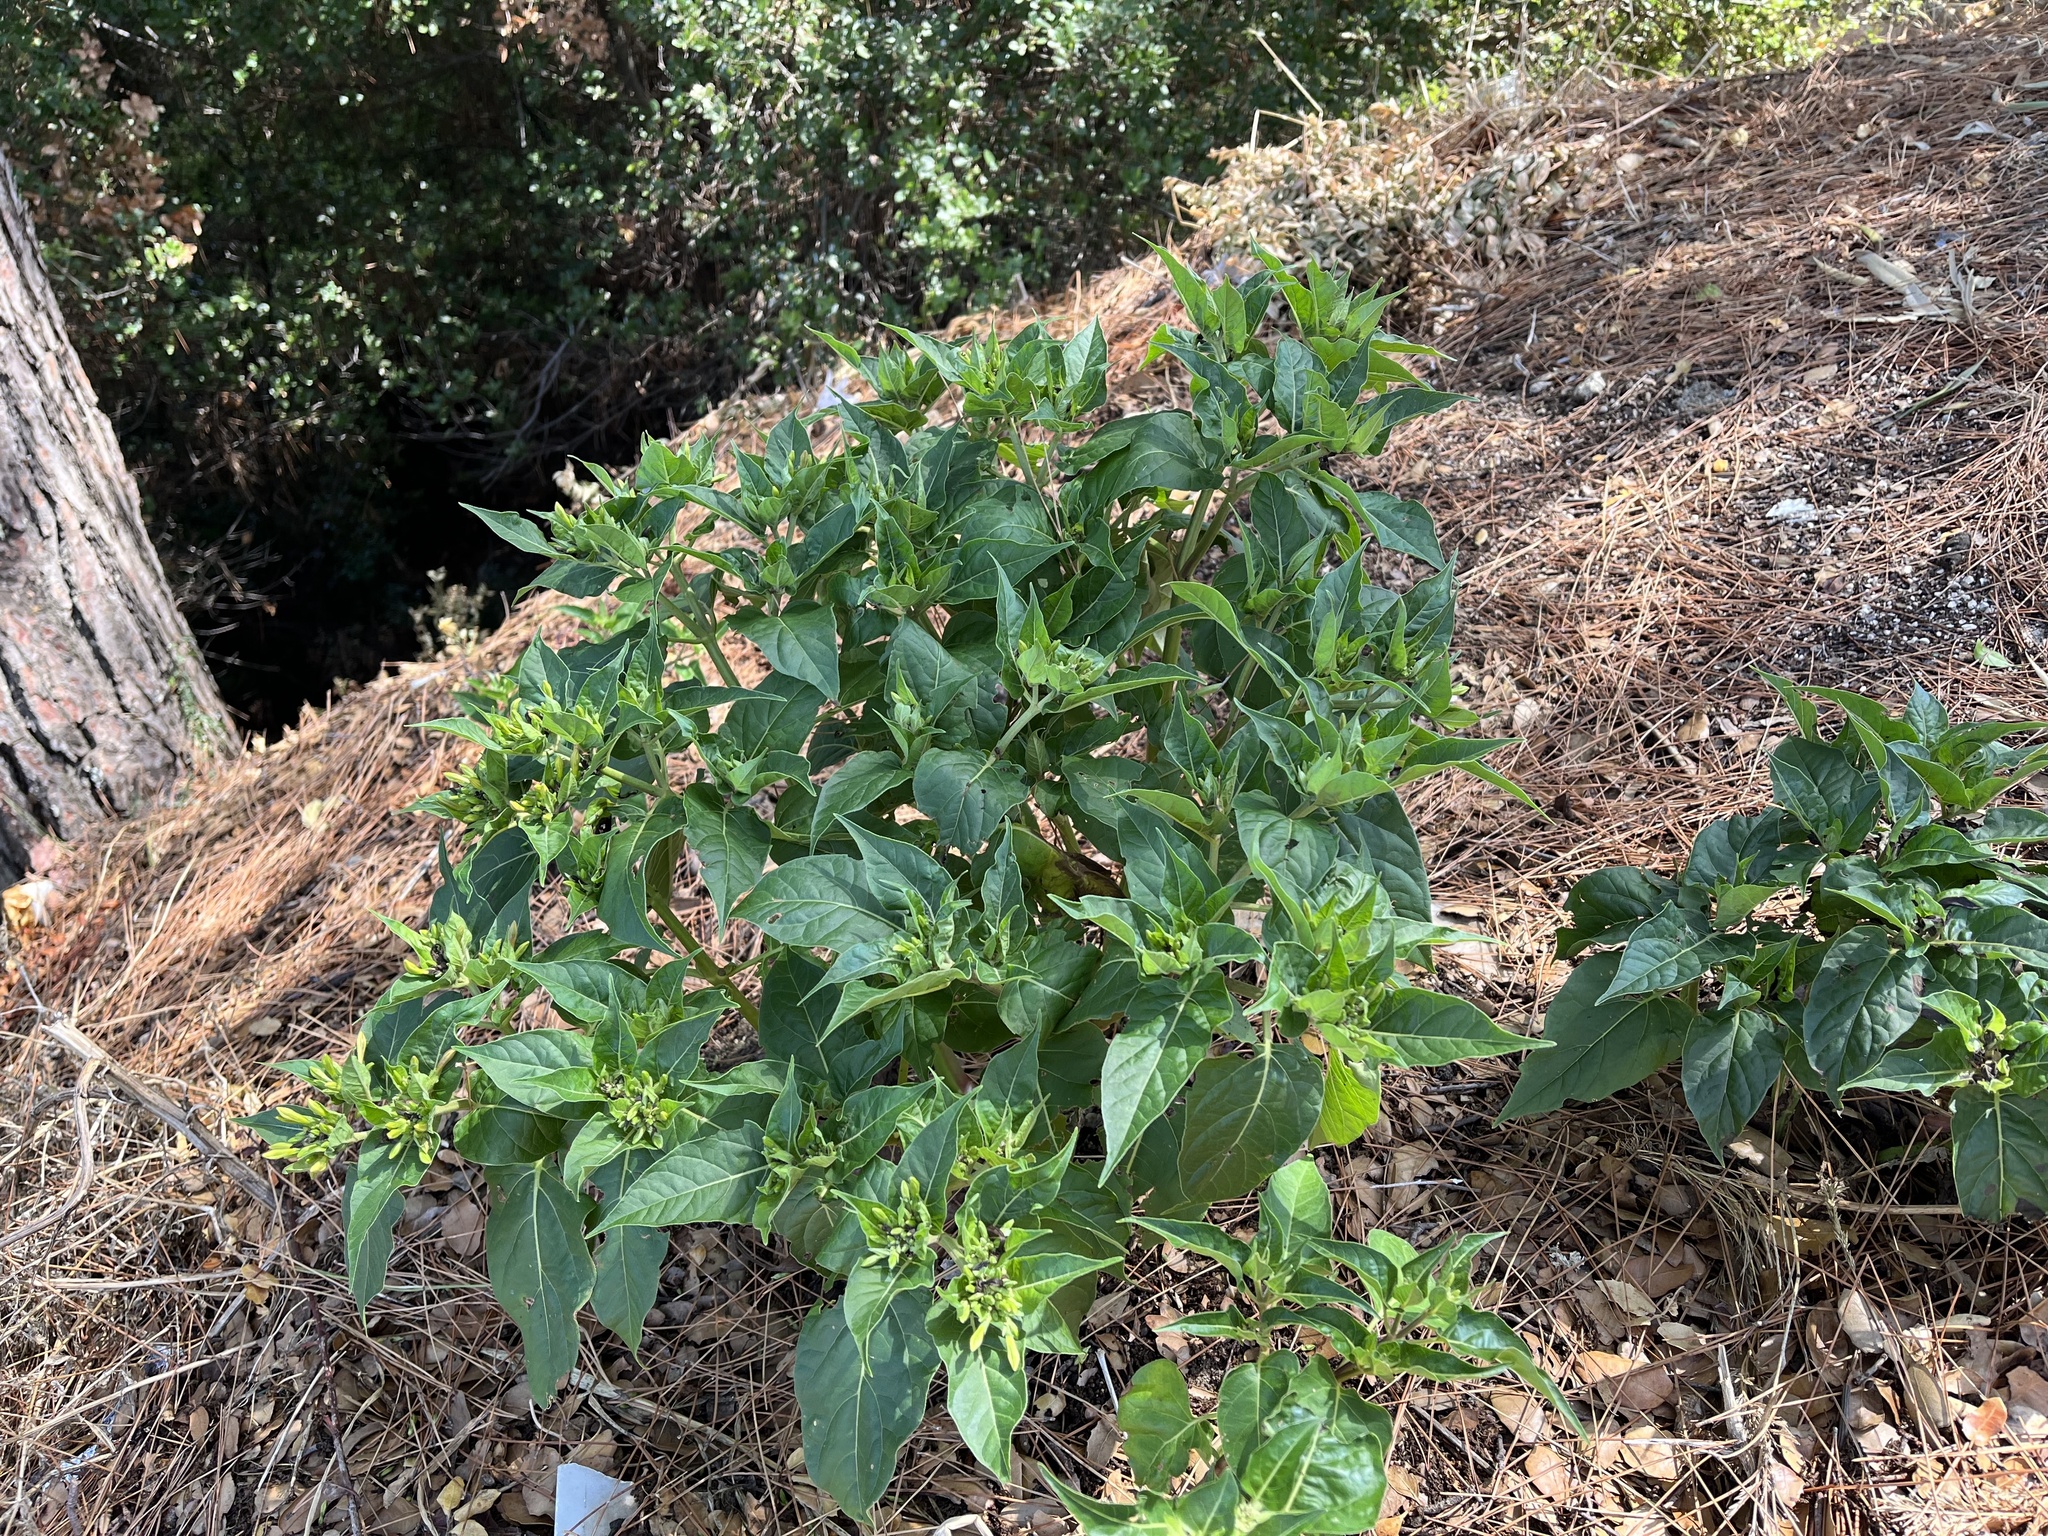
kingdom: Plantae
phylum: Tracheophyta
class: Magnoliopsida
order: Caryophyllales
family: Nyctaginaceae
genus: Mirabilis
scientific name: Mirabilis jalapa
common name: Marvel-of-peru
